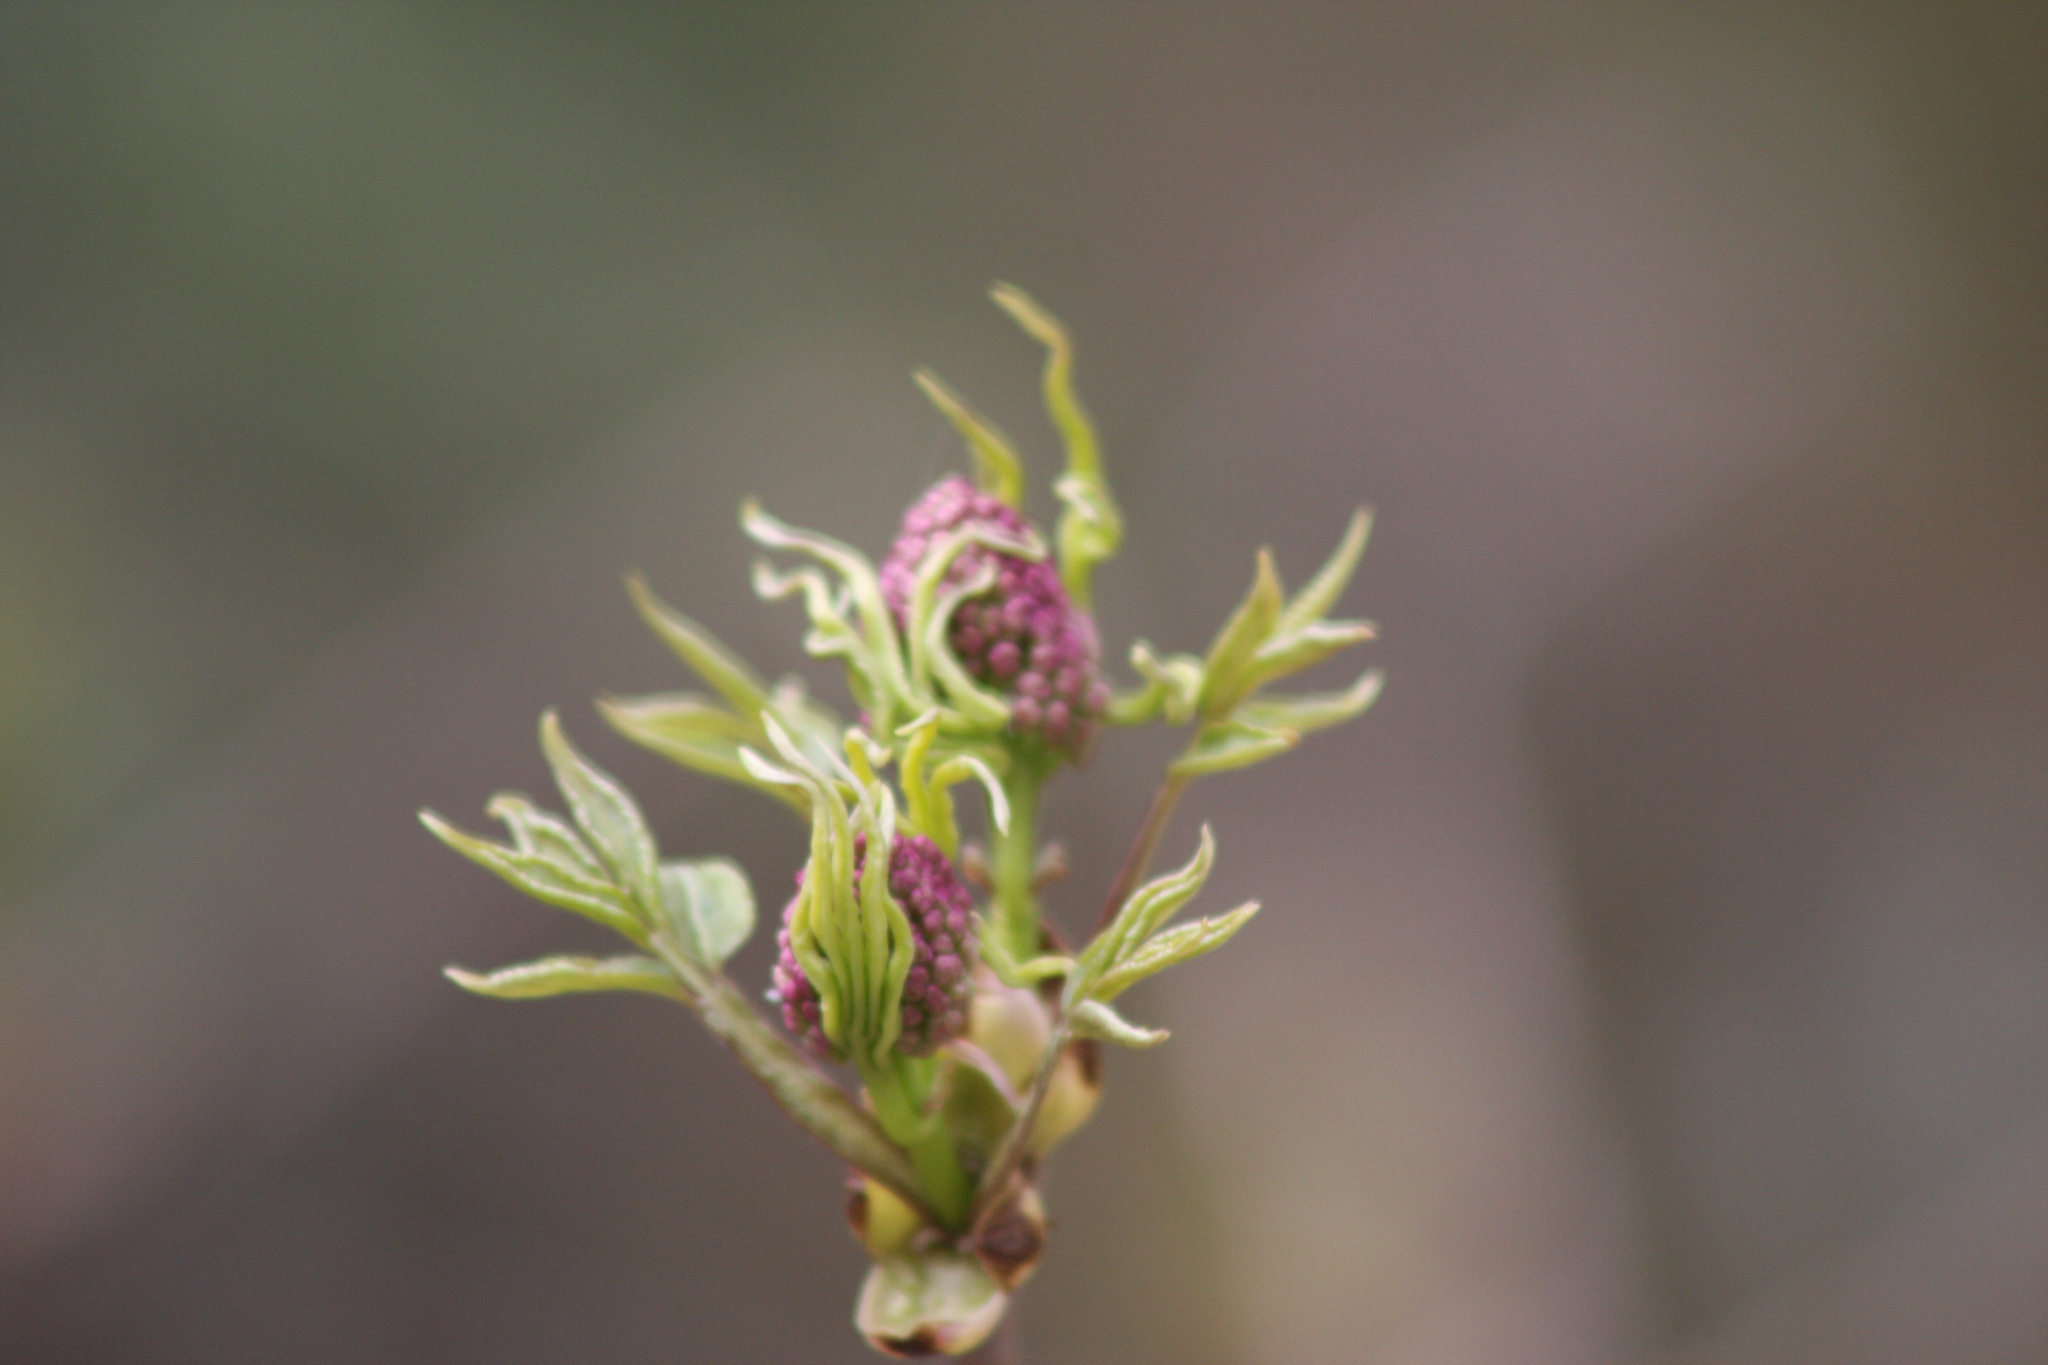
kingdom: Plantae
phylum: Tracheophyta
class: Magnoliopsida
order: Dipsacales
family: Viburnaceae
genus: Sambucus
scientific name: Sambucus racemosa
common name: Red-berried elder
